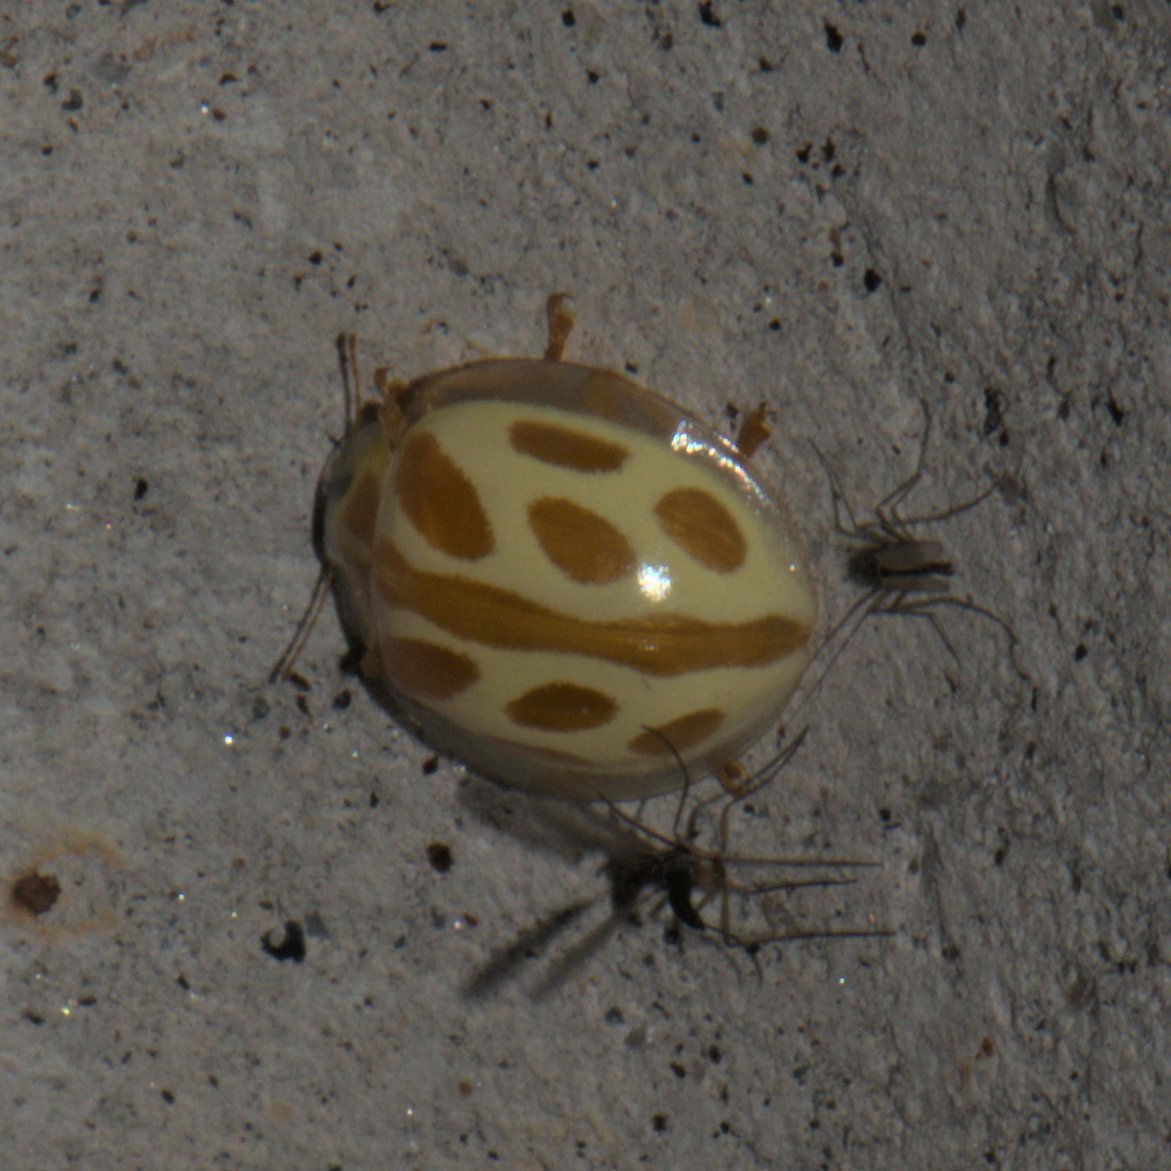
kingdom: Animalia
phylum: Arthropoda
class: Insecta
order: Coleoptera
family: Coccinellidae
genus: Halyzia
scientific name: Halyzia dejavu
